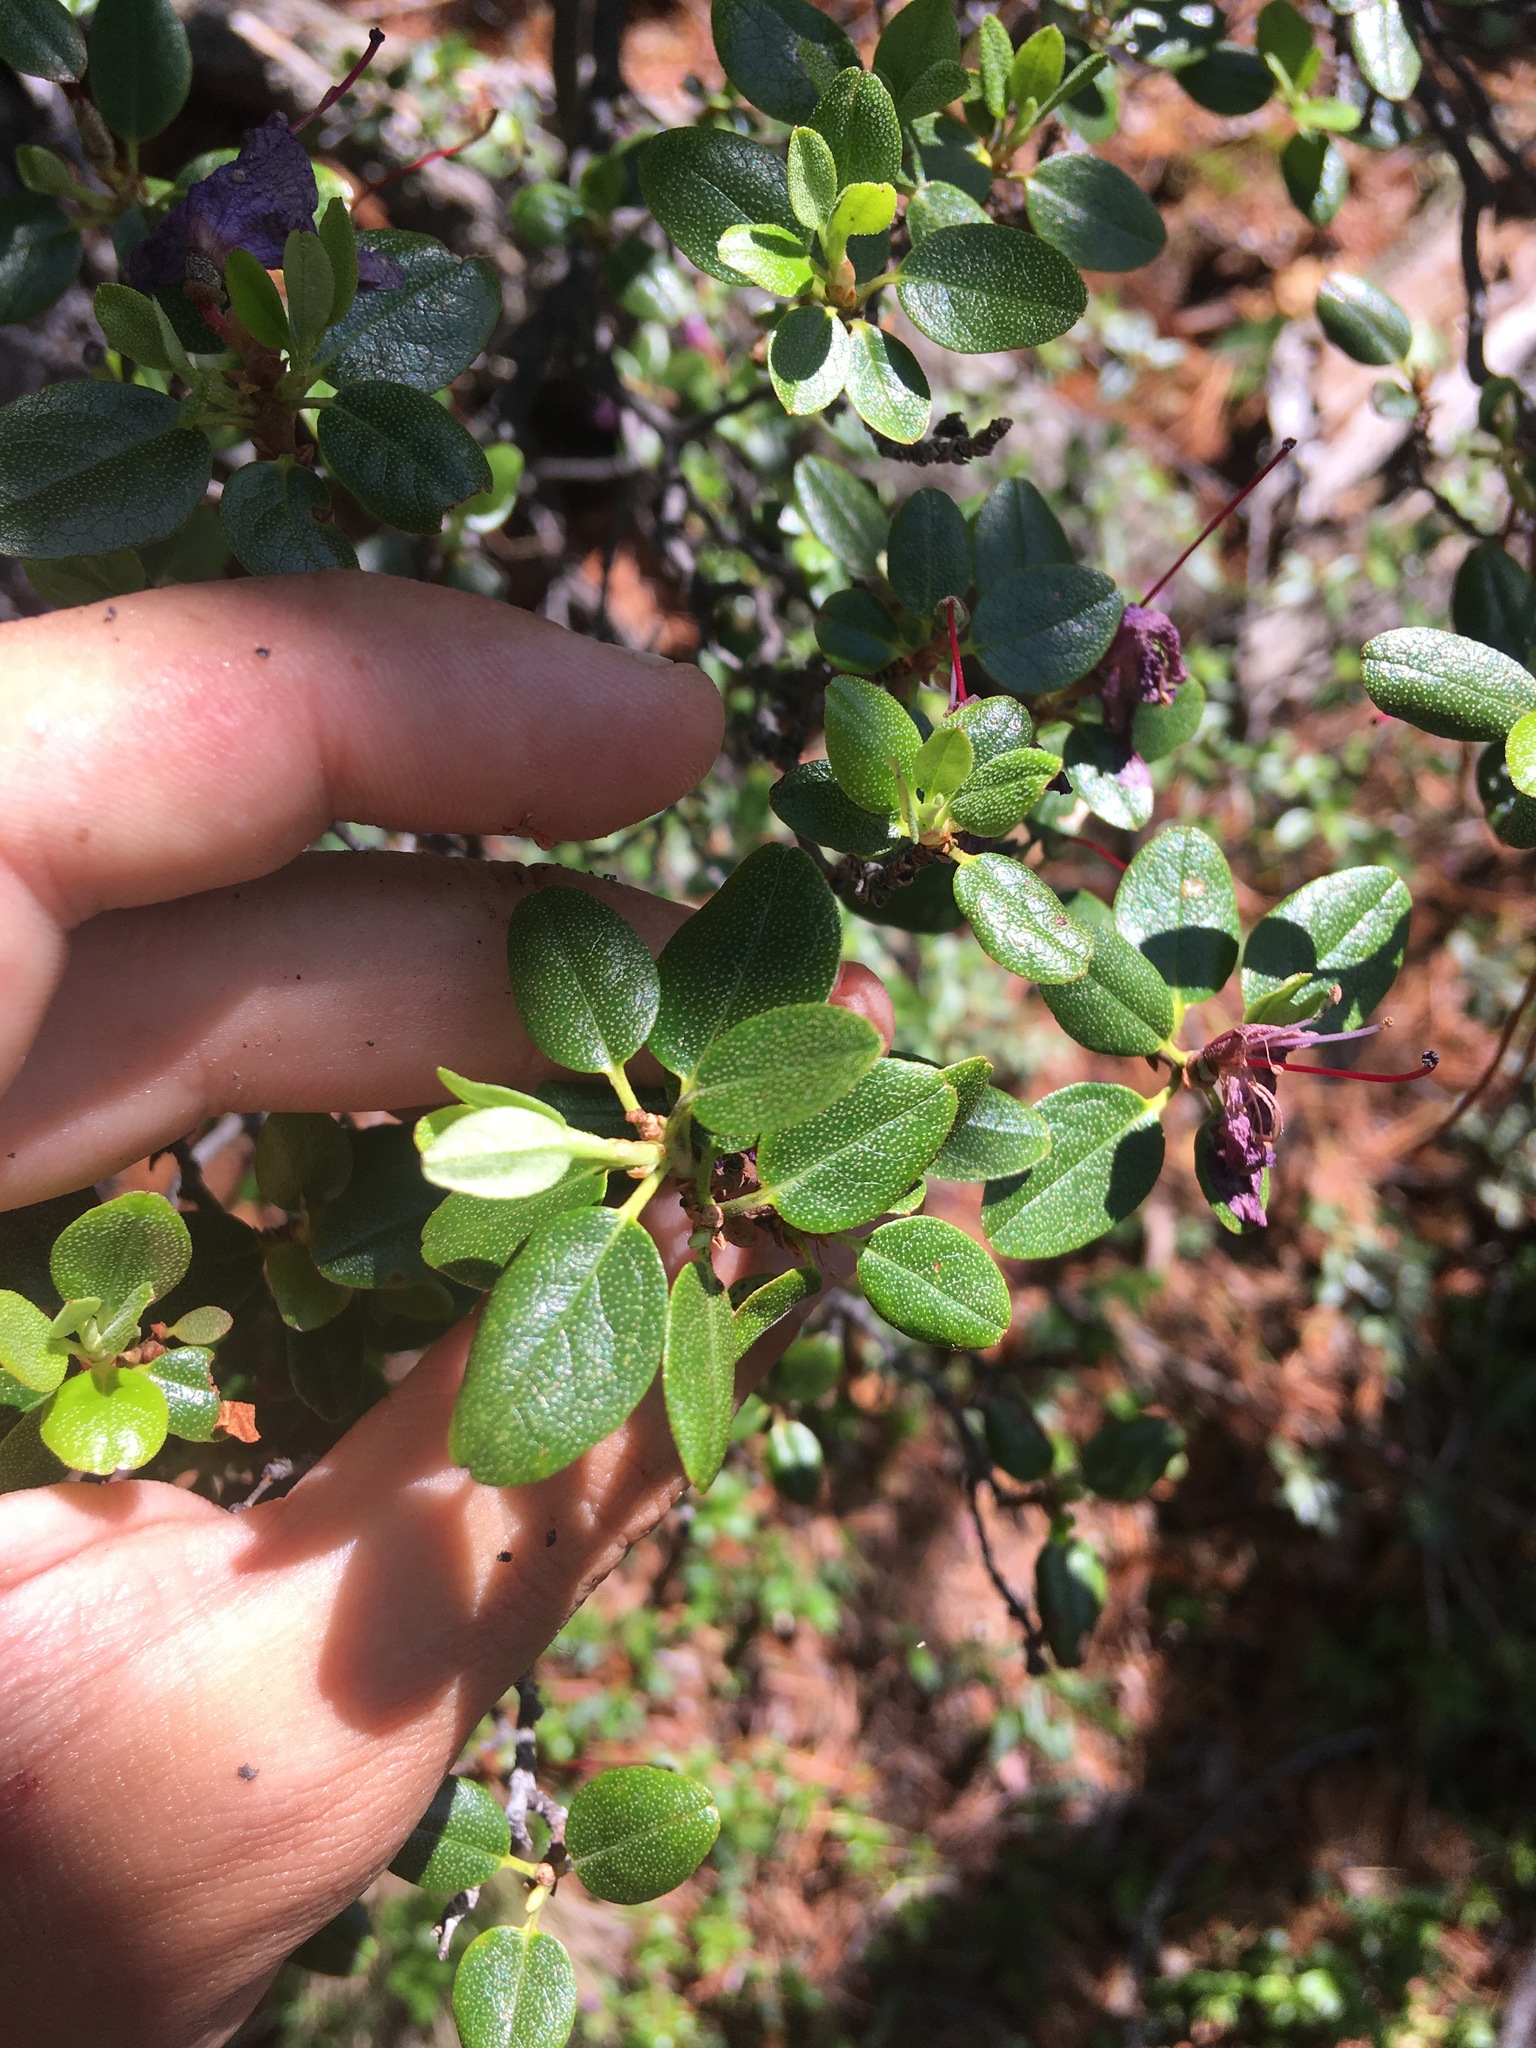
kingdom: Plantae
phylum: Tracheophyta
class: Magnoliopsida
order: Ericales
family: Ericaceae
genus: Rhododendron
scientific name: Rhododendron dauricum
